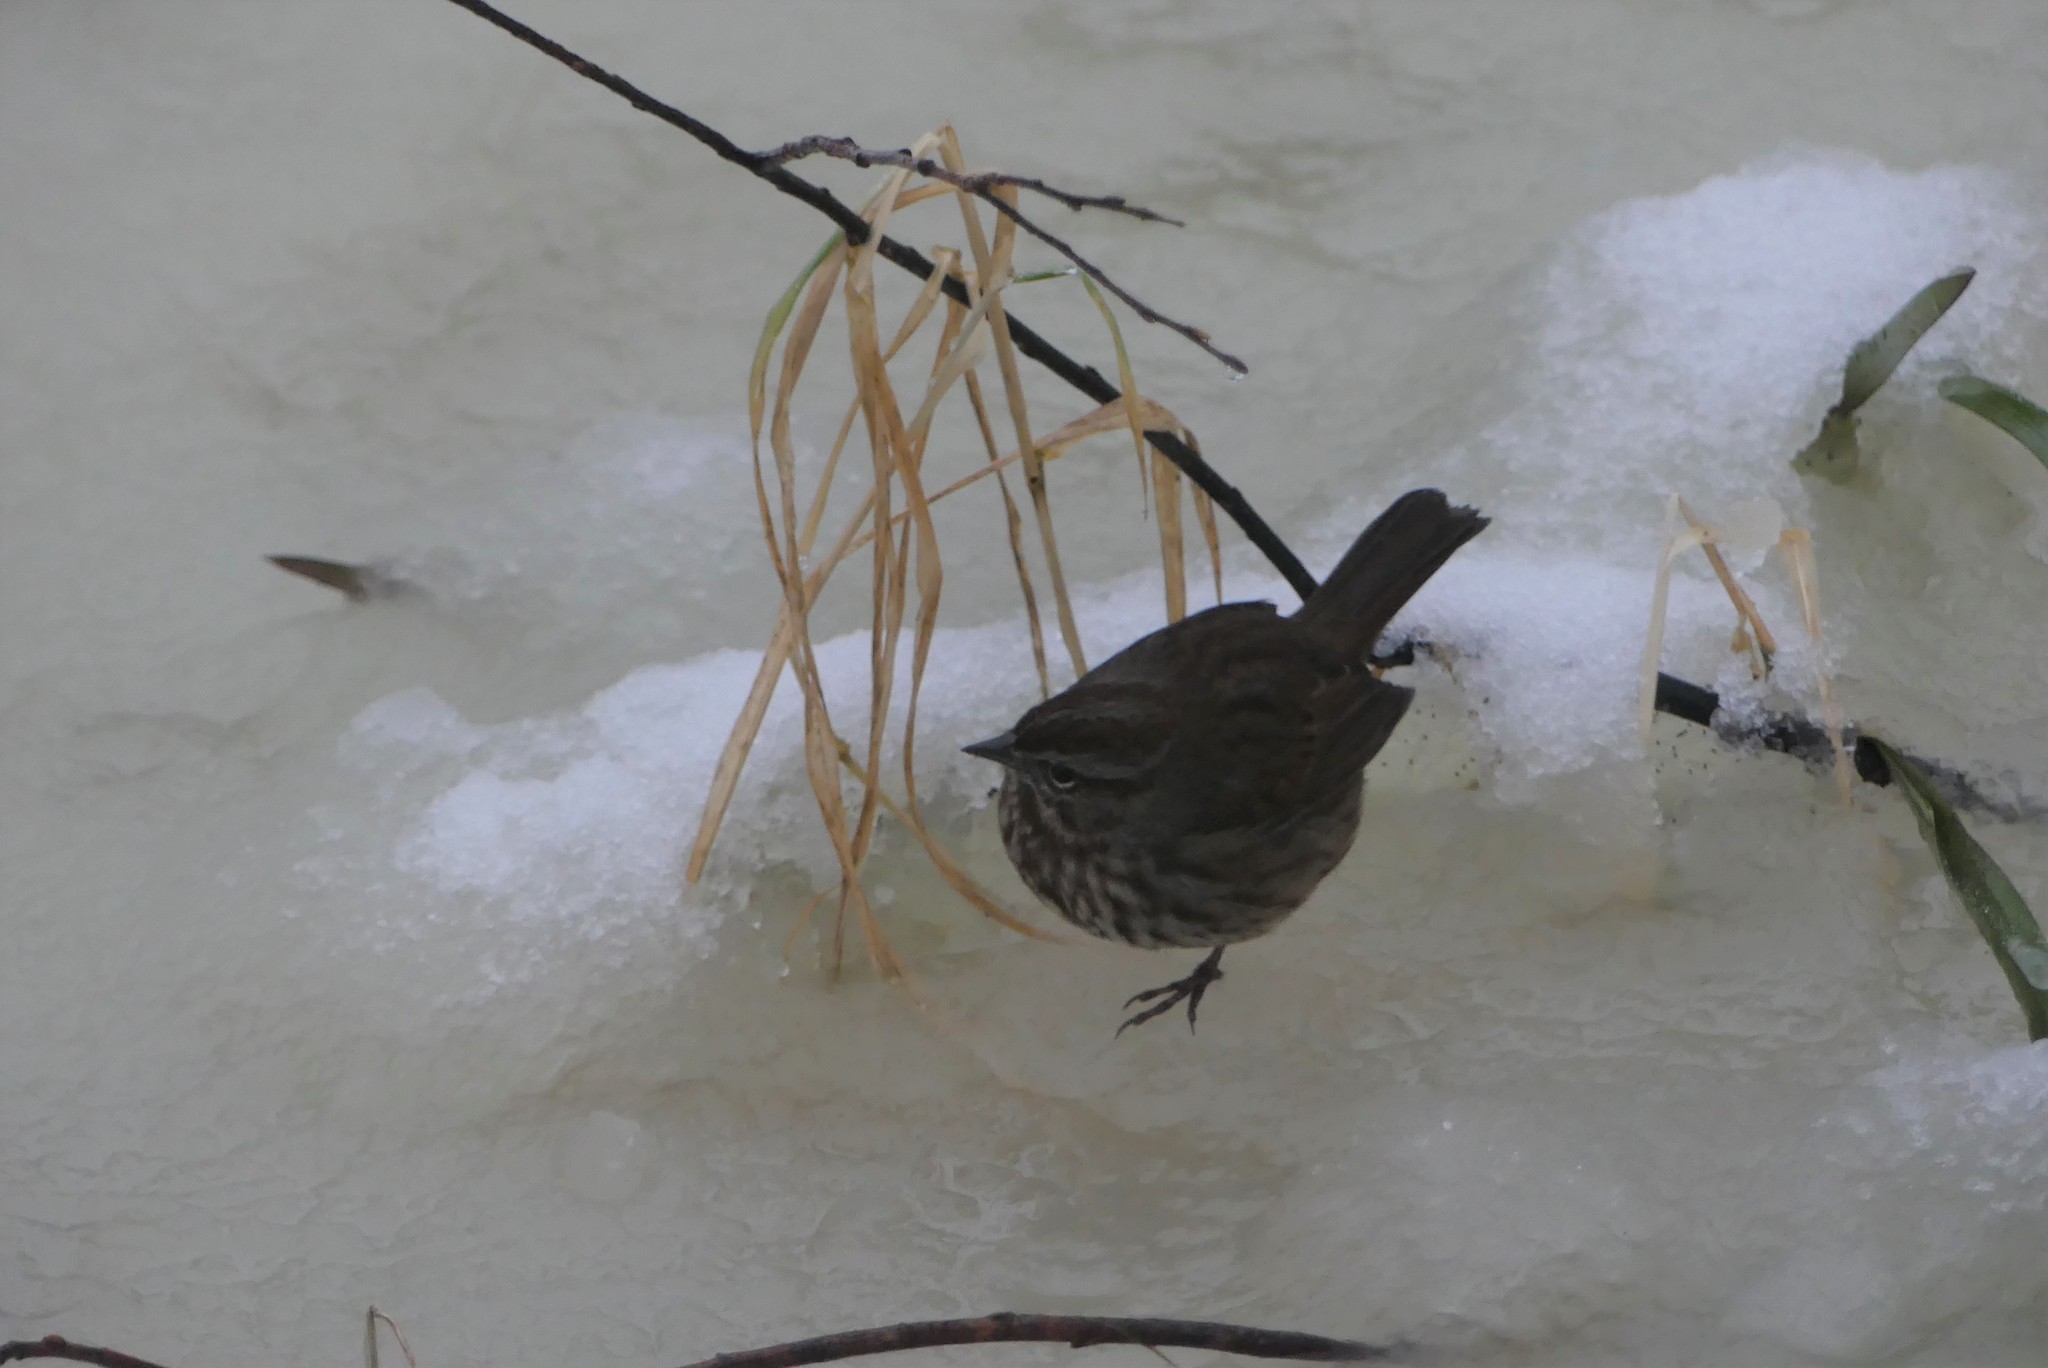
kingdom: Animalia
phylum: Chordata
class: Aves
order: Passeriformes
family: Passerellidae
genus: Melospiza
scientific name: Melospiza melodia
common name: Song sparrow
